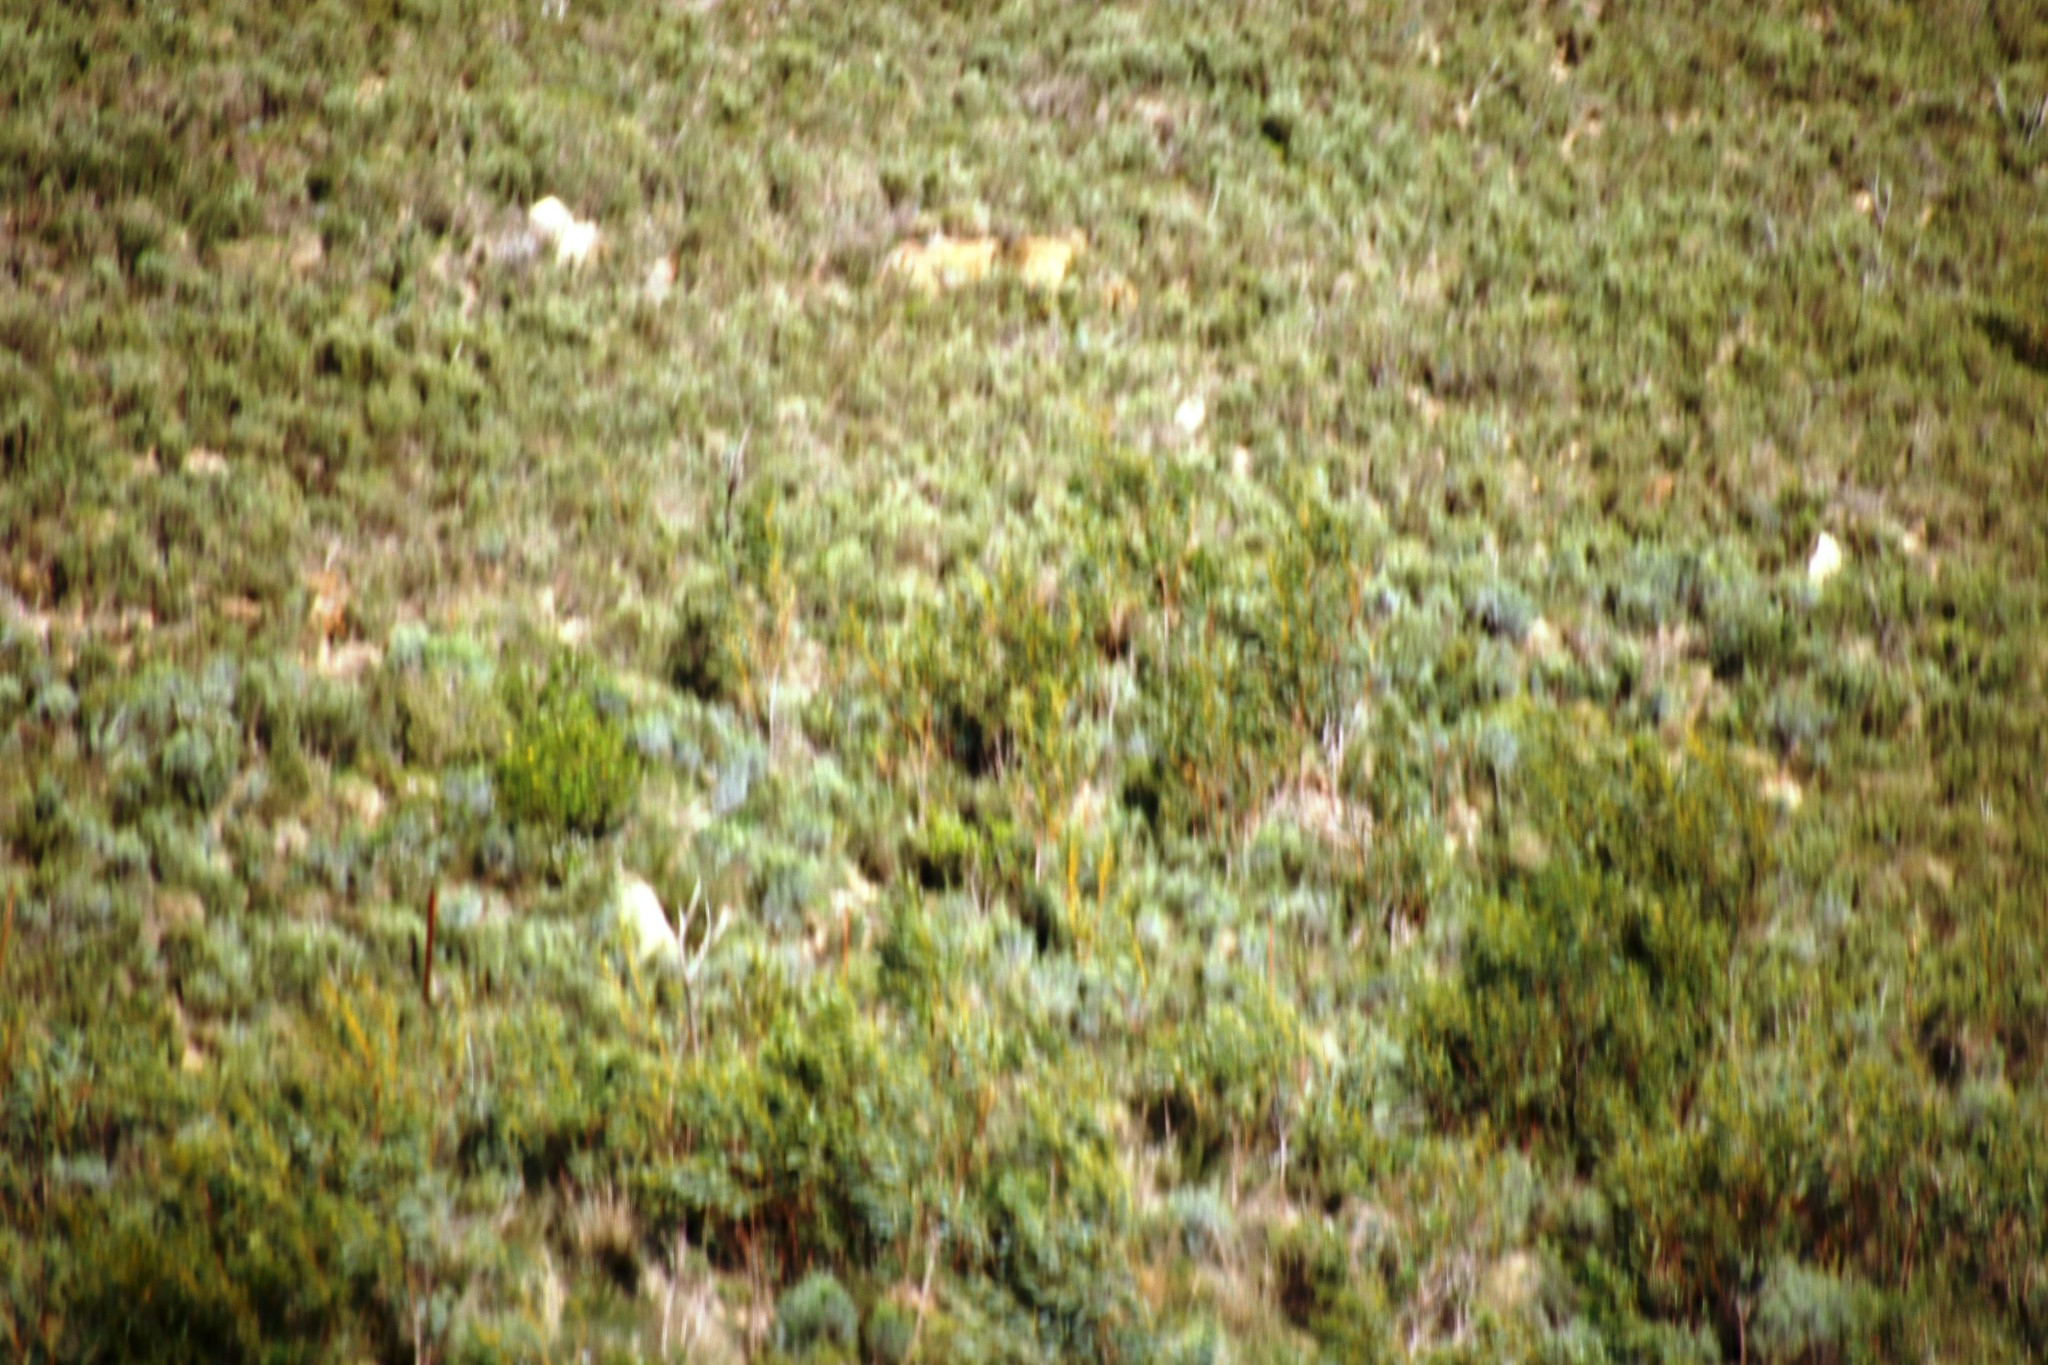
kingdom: Plantae
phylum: Tracheophyta
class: Magnoliopsida
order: Fabales
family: Fabaceae
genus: Acacia
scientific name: Acacia pycnantha
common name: Golden wattle
